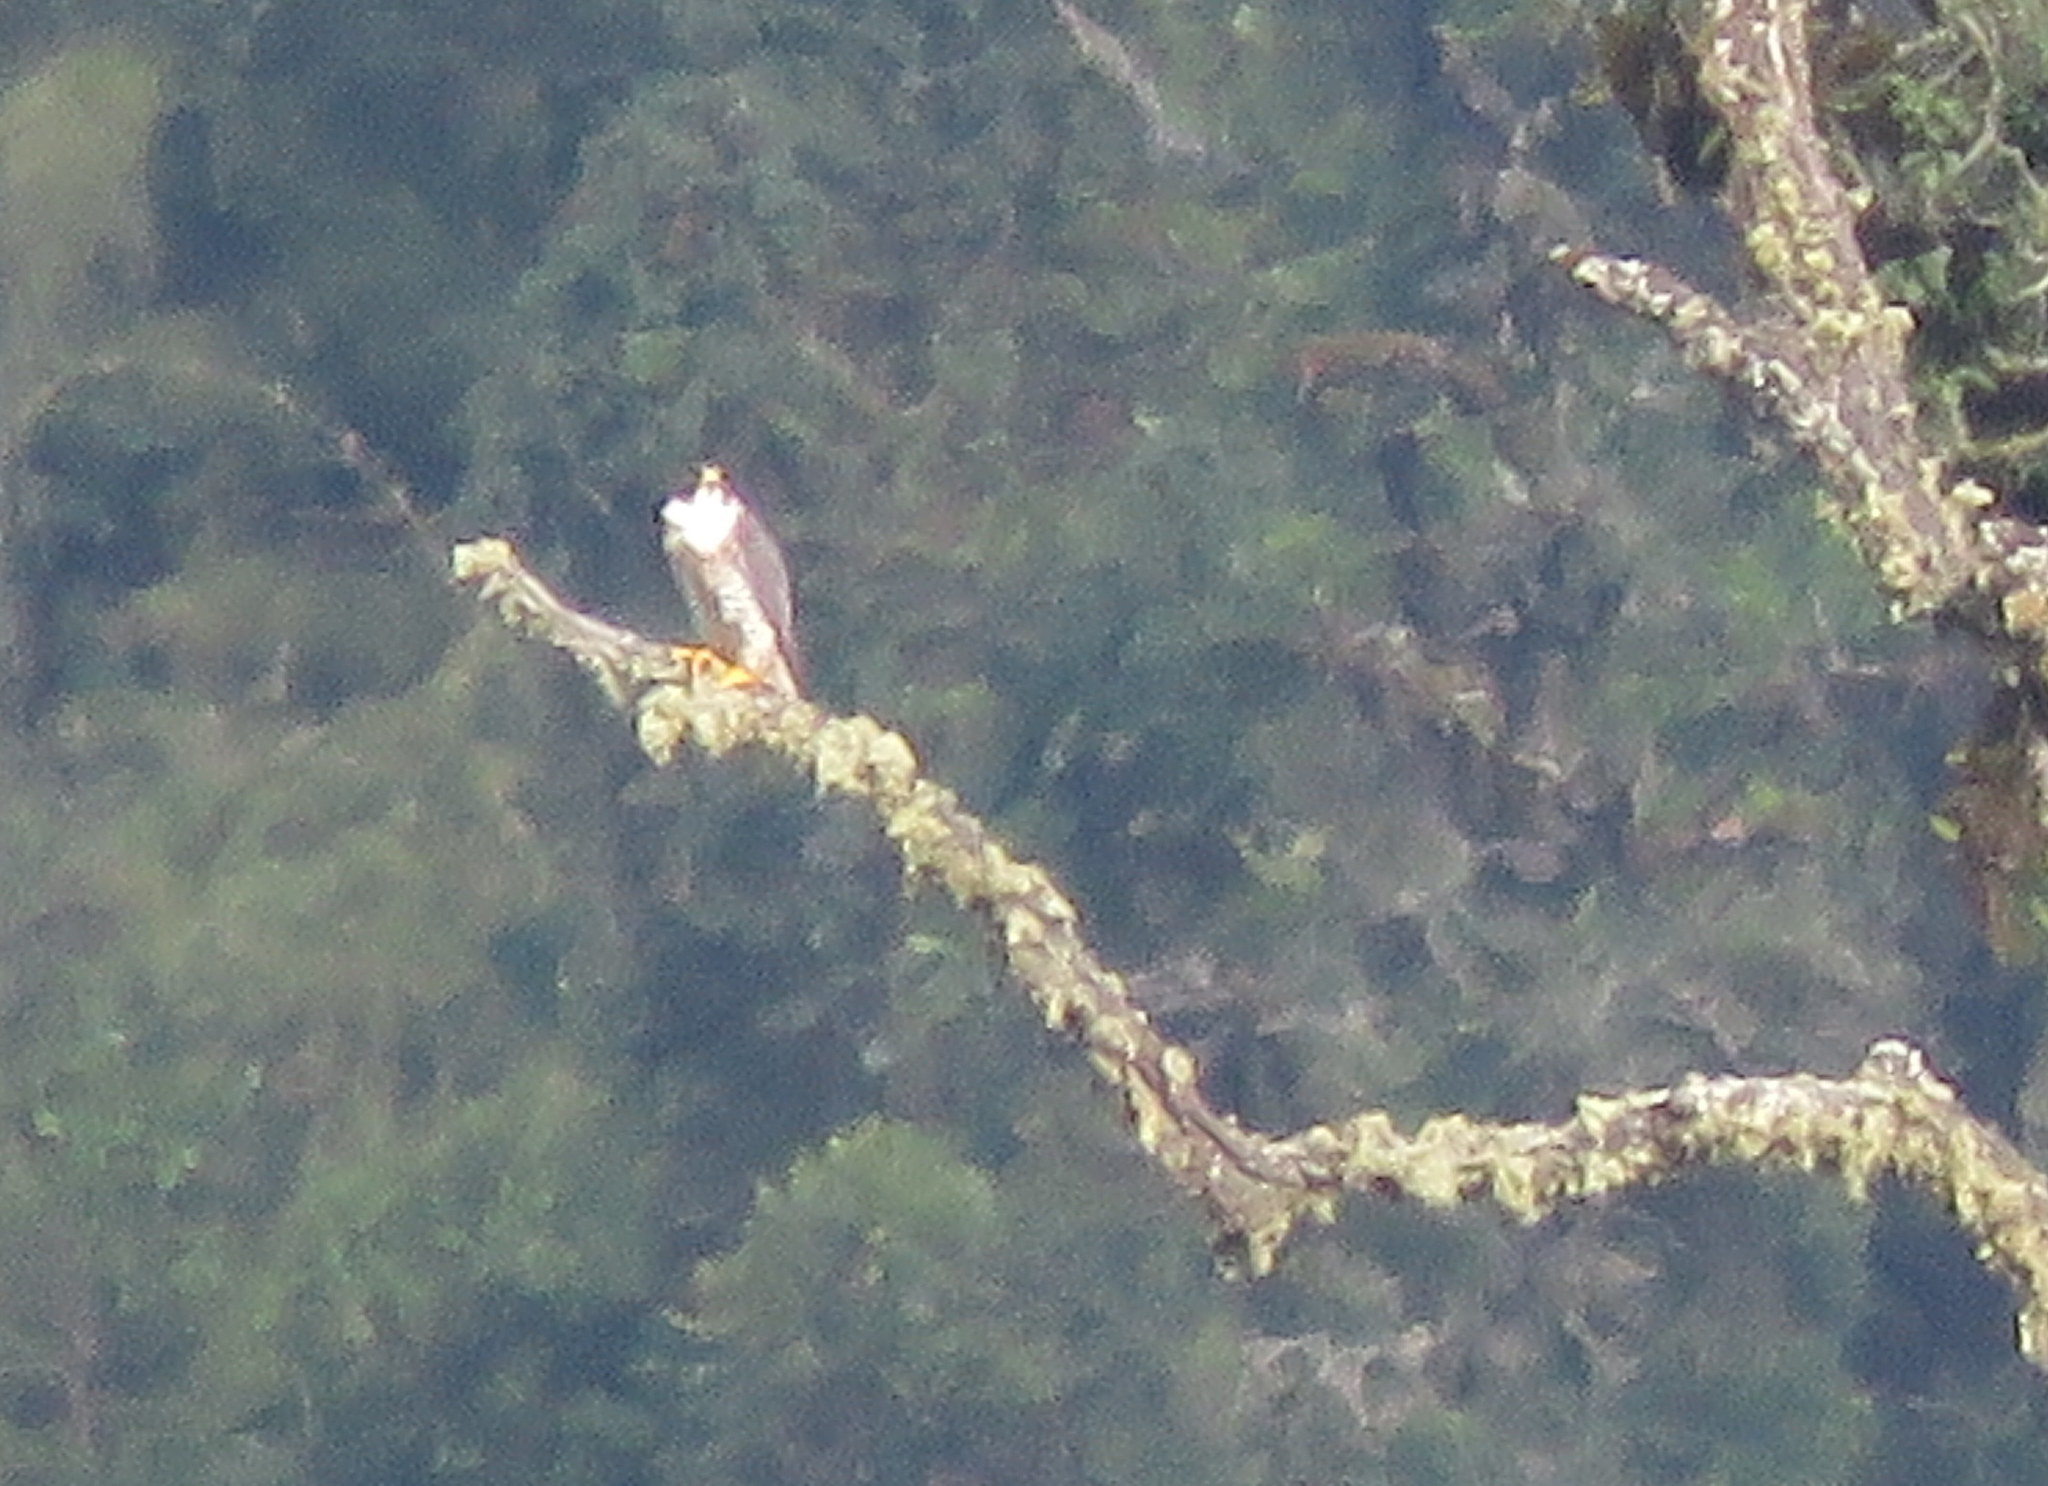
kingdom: Animalia
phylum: Chordata
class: Aves
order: Falconiformes
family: Falconidae
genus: Falco
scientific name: Falco peregrinus
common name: Peregrine falcon
